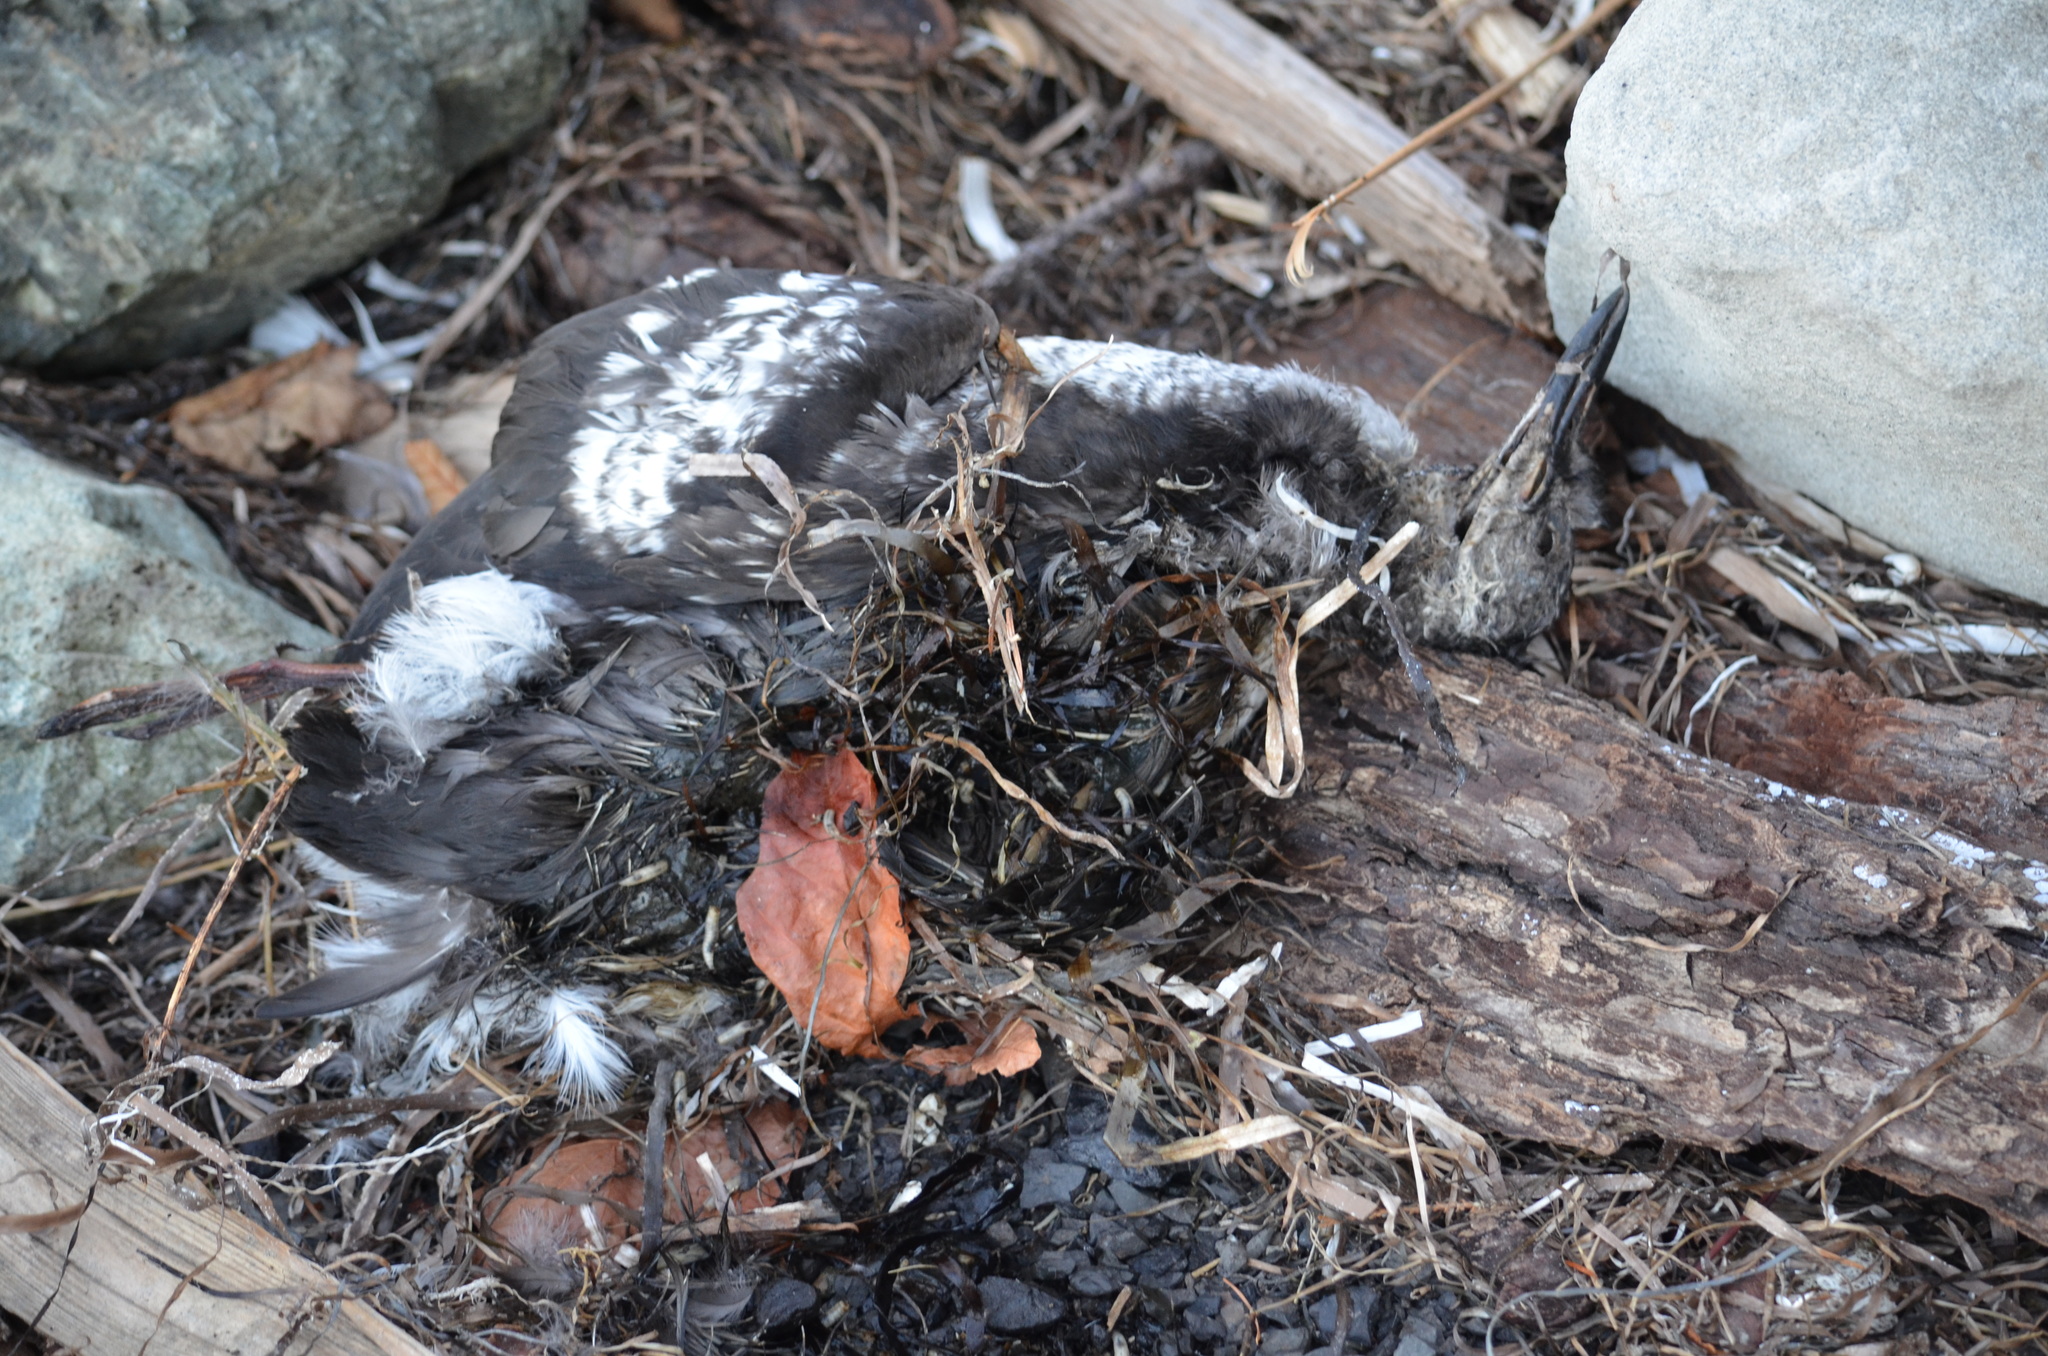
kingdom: Animalia
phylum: Chordata
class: Aves
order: Charadriiformes
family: Alcidae
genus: Cepphus
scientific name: Cepphus columba
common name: Pigeon guillemot
